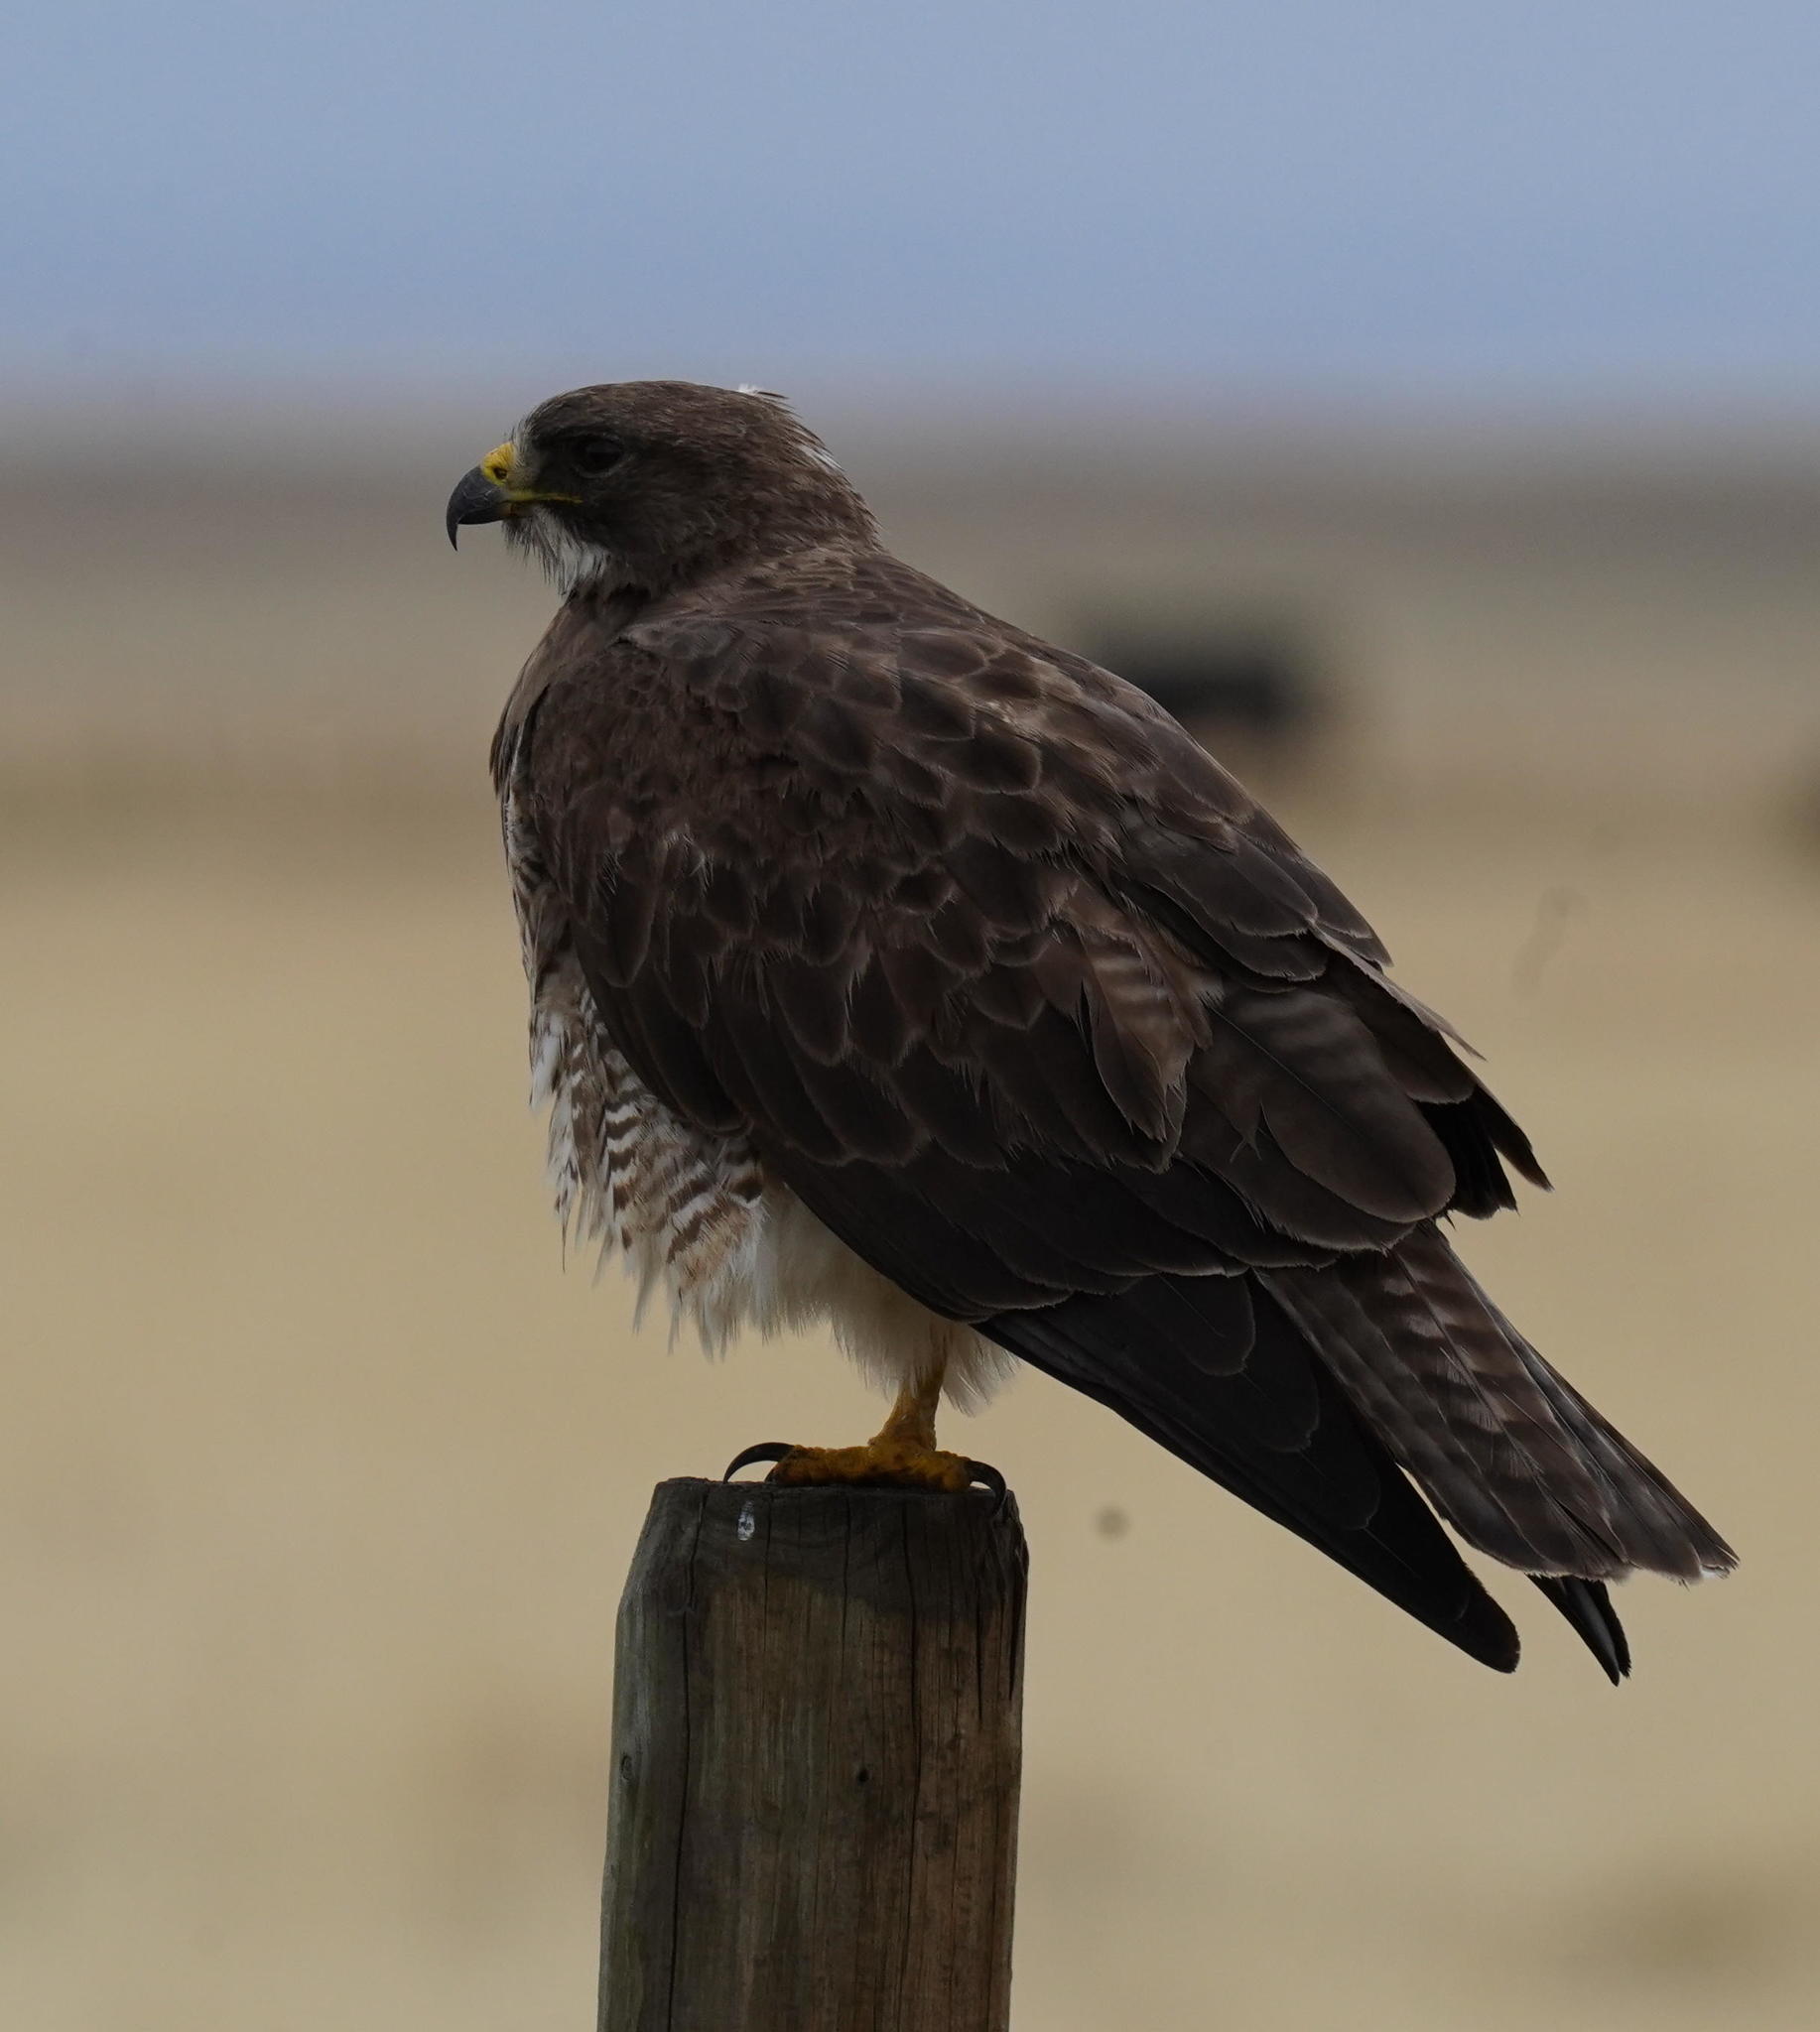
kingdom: Animalia
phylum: Chordata
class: Aves
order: Accipitriformes
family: Accipitridae
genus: Buteo
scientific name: Buteo swainsoni
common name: Swainson's hawk
